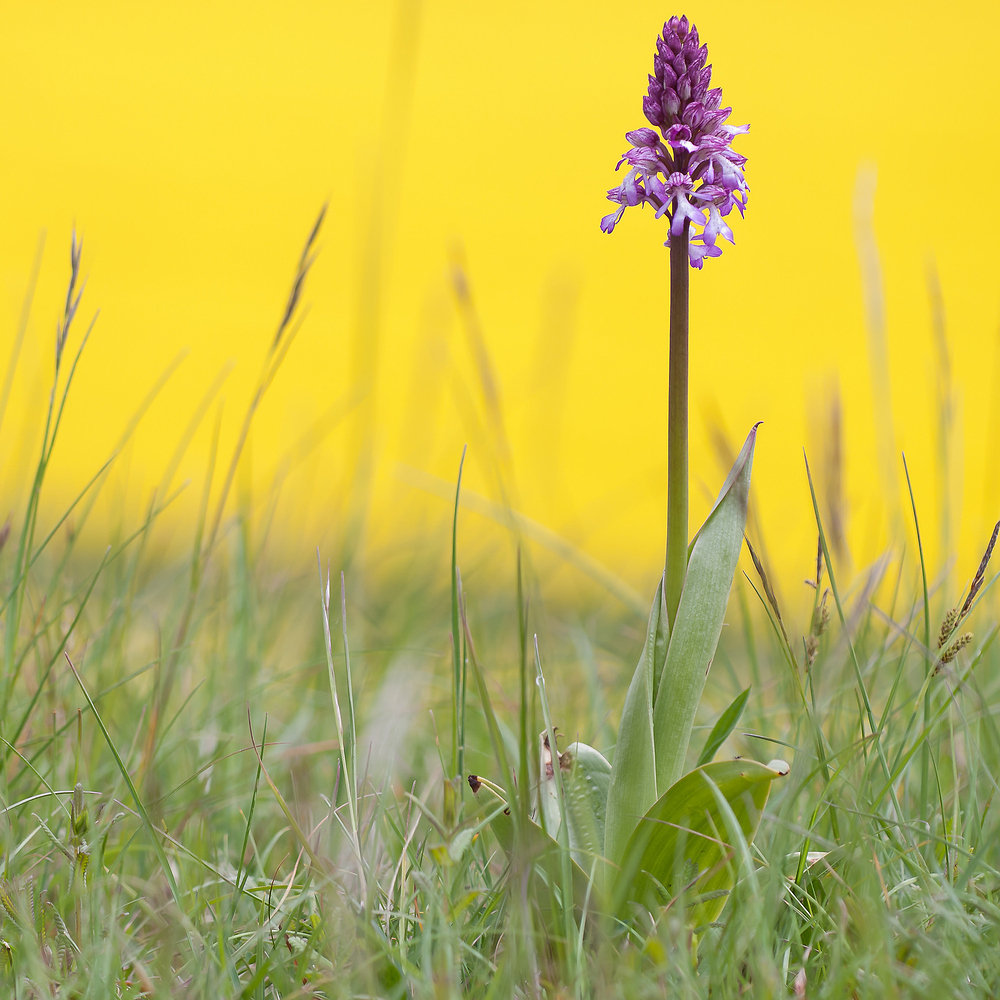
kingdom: Plantae
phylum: Tracheophyta
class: Liliopsida
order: Asparagales
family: Orchidaceae
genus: Orchis
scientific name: Orchis purpurea
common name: Lady orchid
